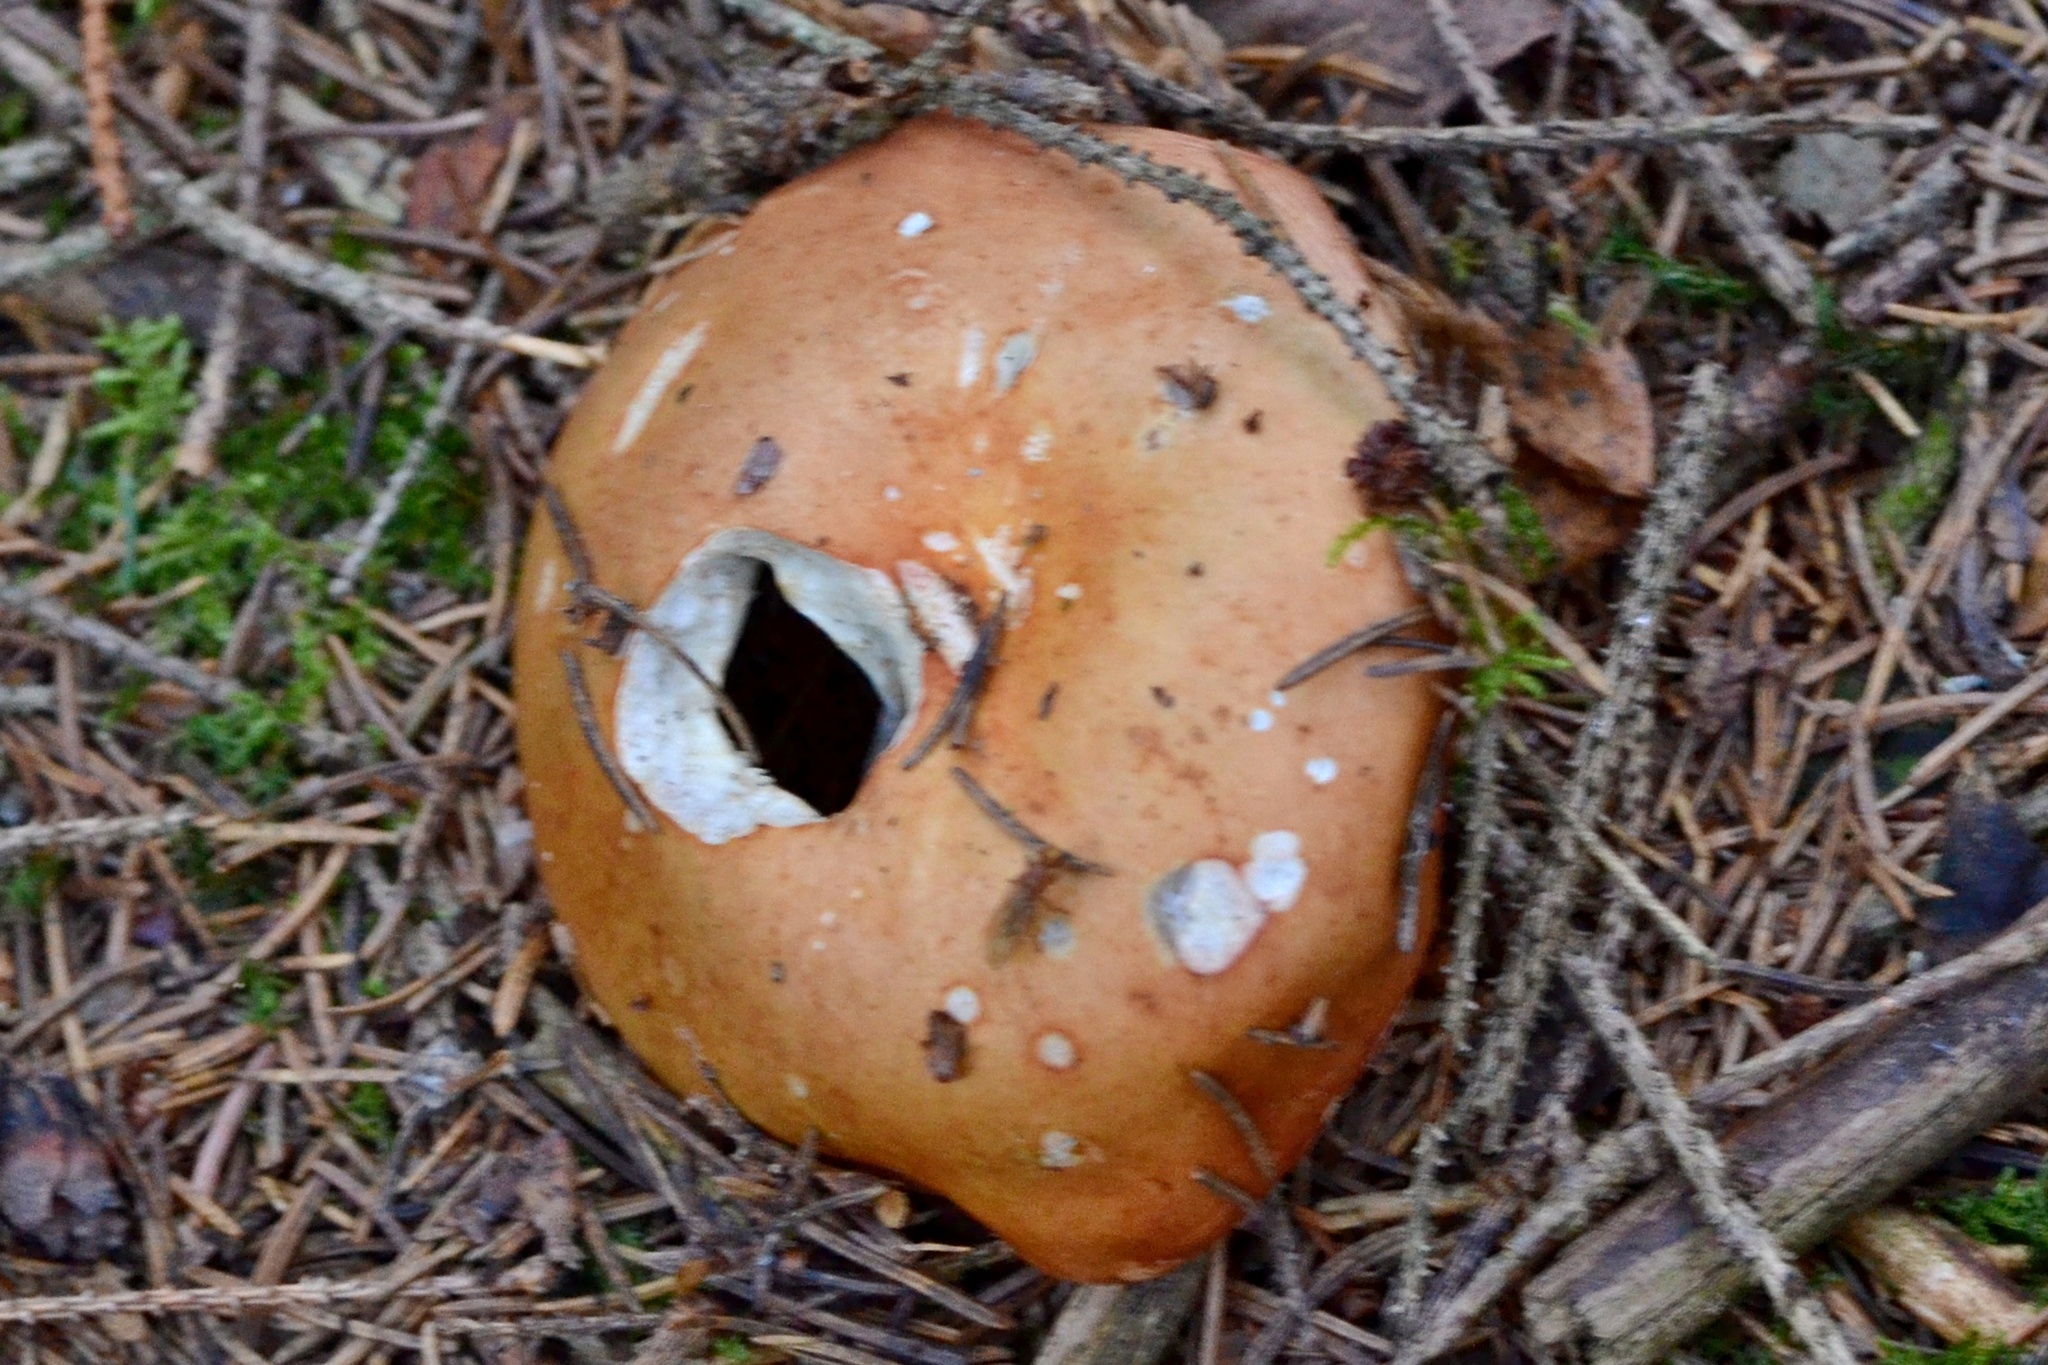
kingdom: Fungi
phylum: Basidiomycota
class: Agaricomycetes
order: Russulales
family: Russulaceae
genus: Russula
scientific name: Russula decolorans
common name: Copper brittlegill
